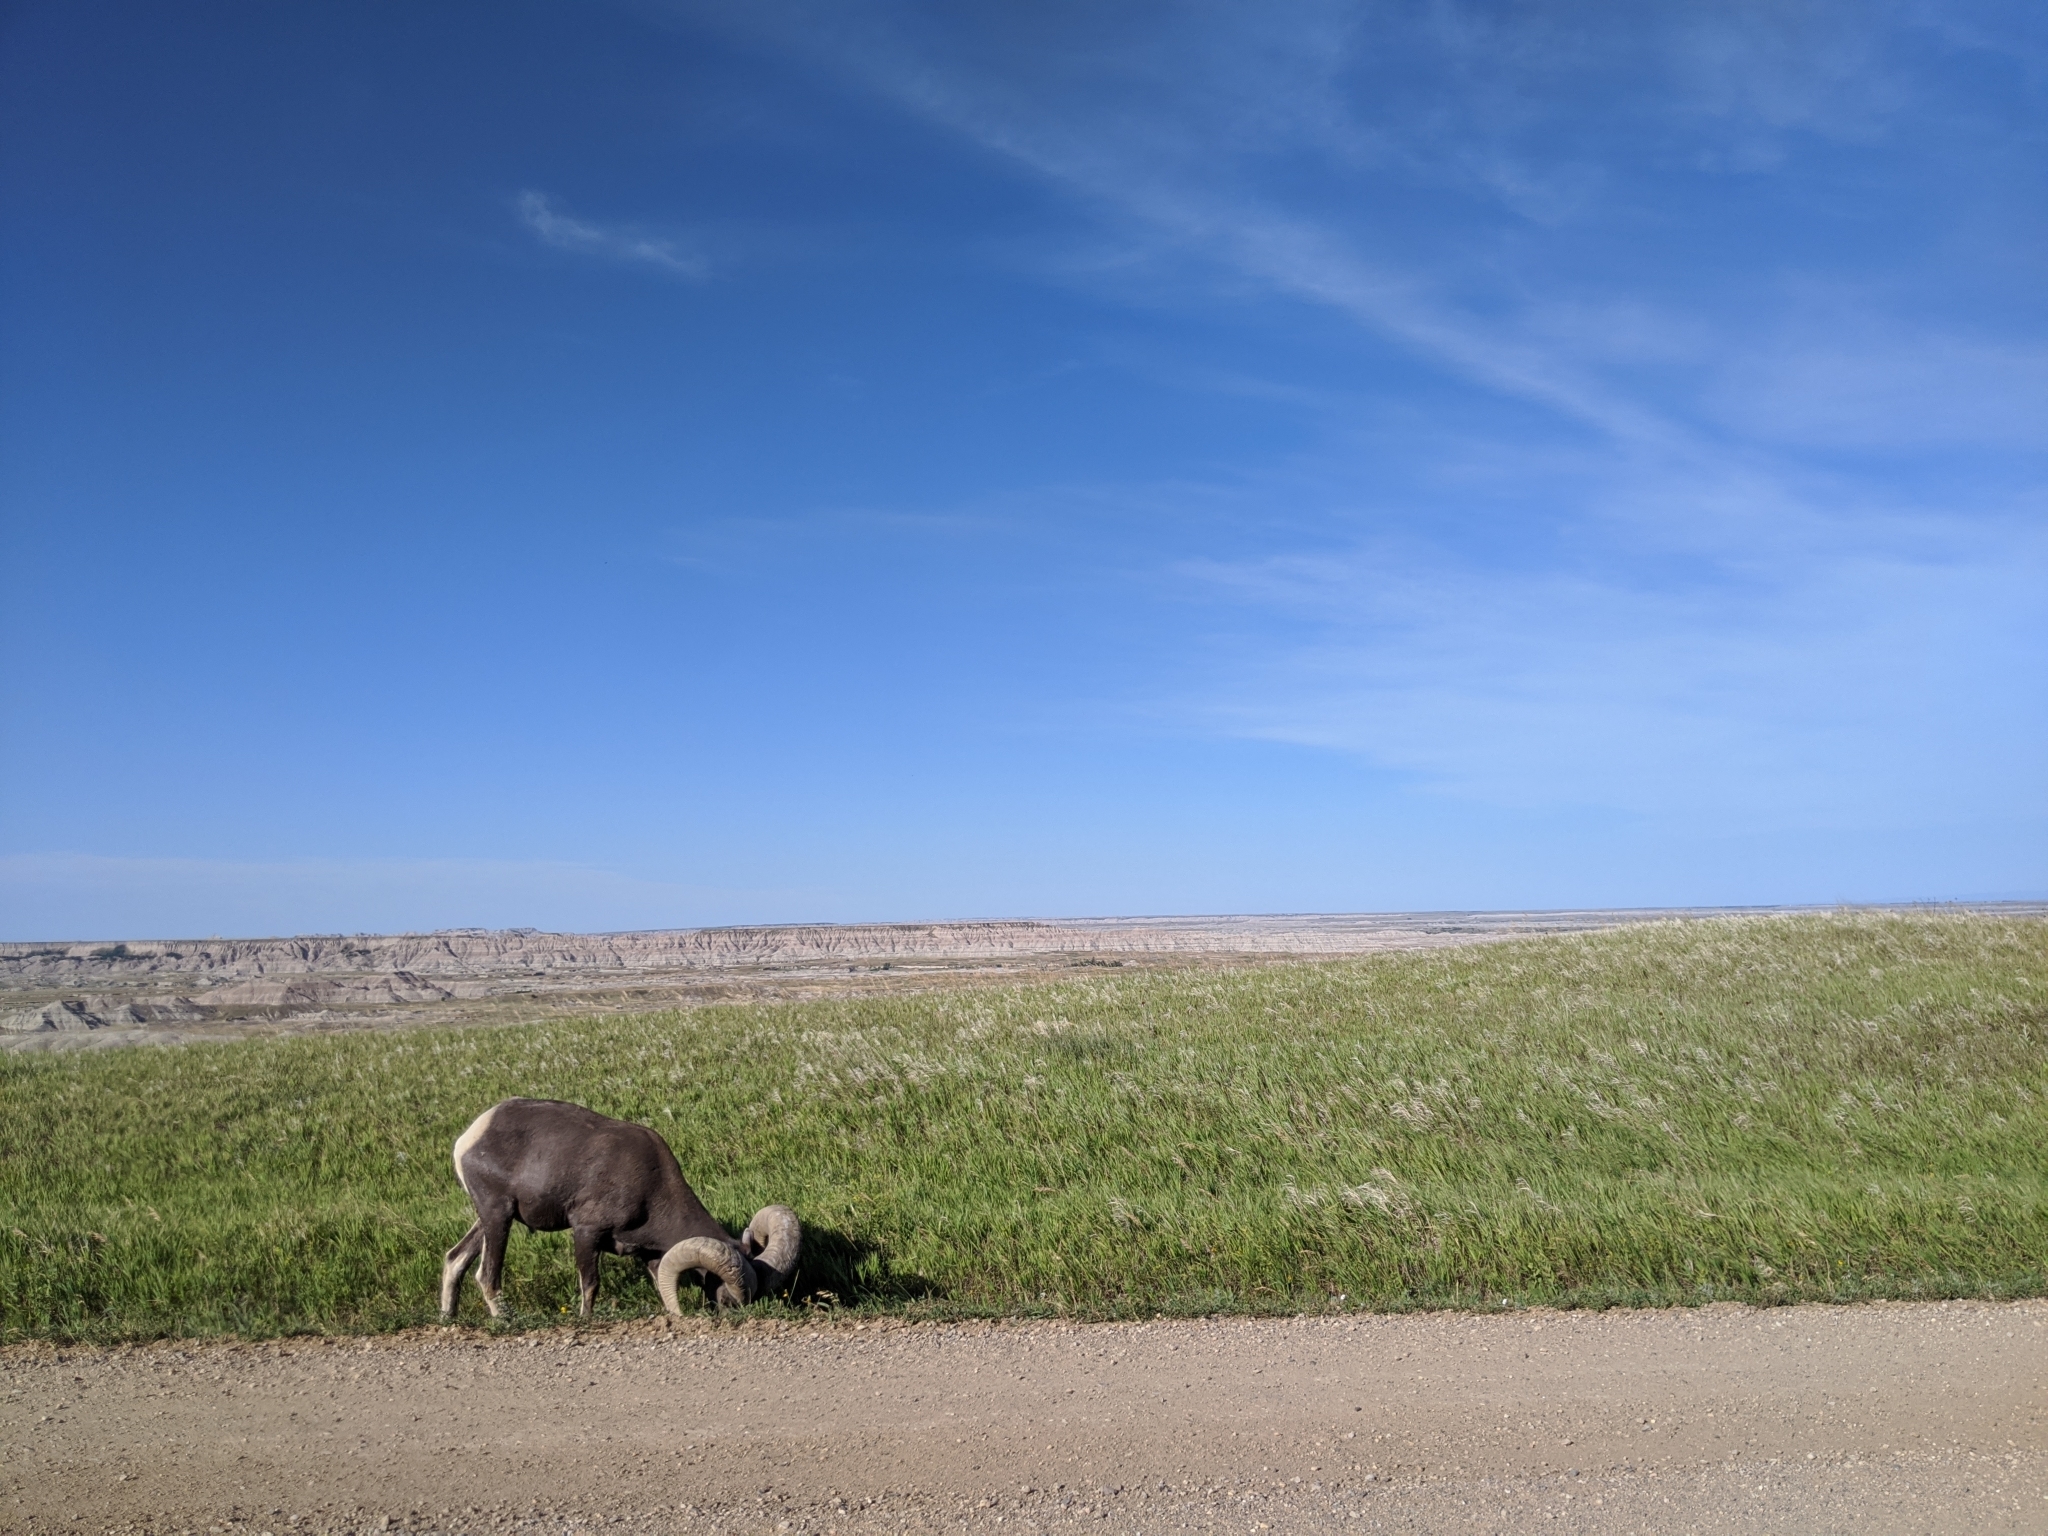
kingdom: Animalia
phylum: Chordata
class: Mammalia
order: Artiodactyla
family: Bovidae
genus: Ovis
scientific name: Ovis canadensis
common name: Bighorn sheep
